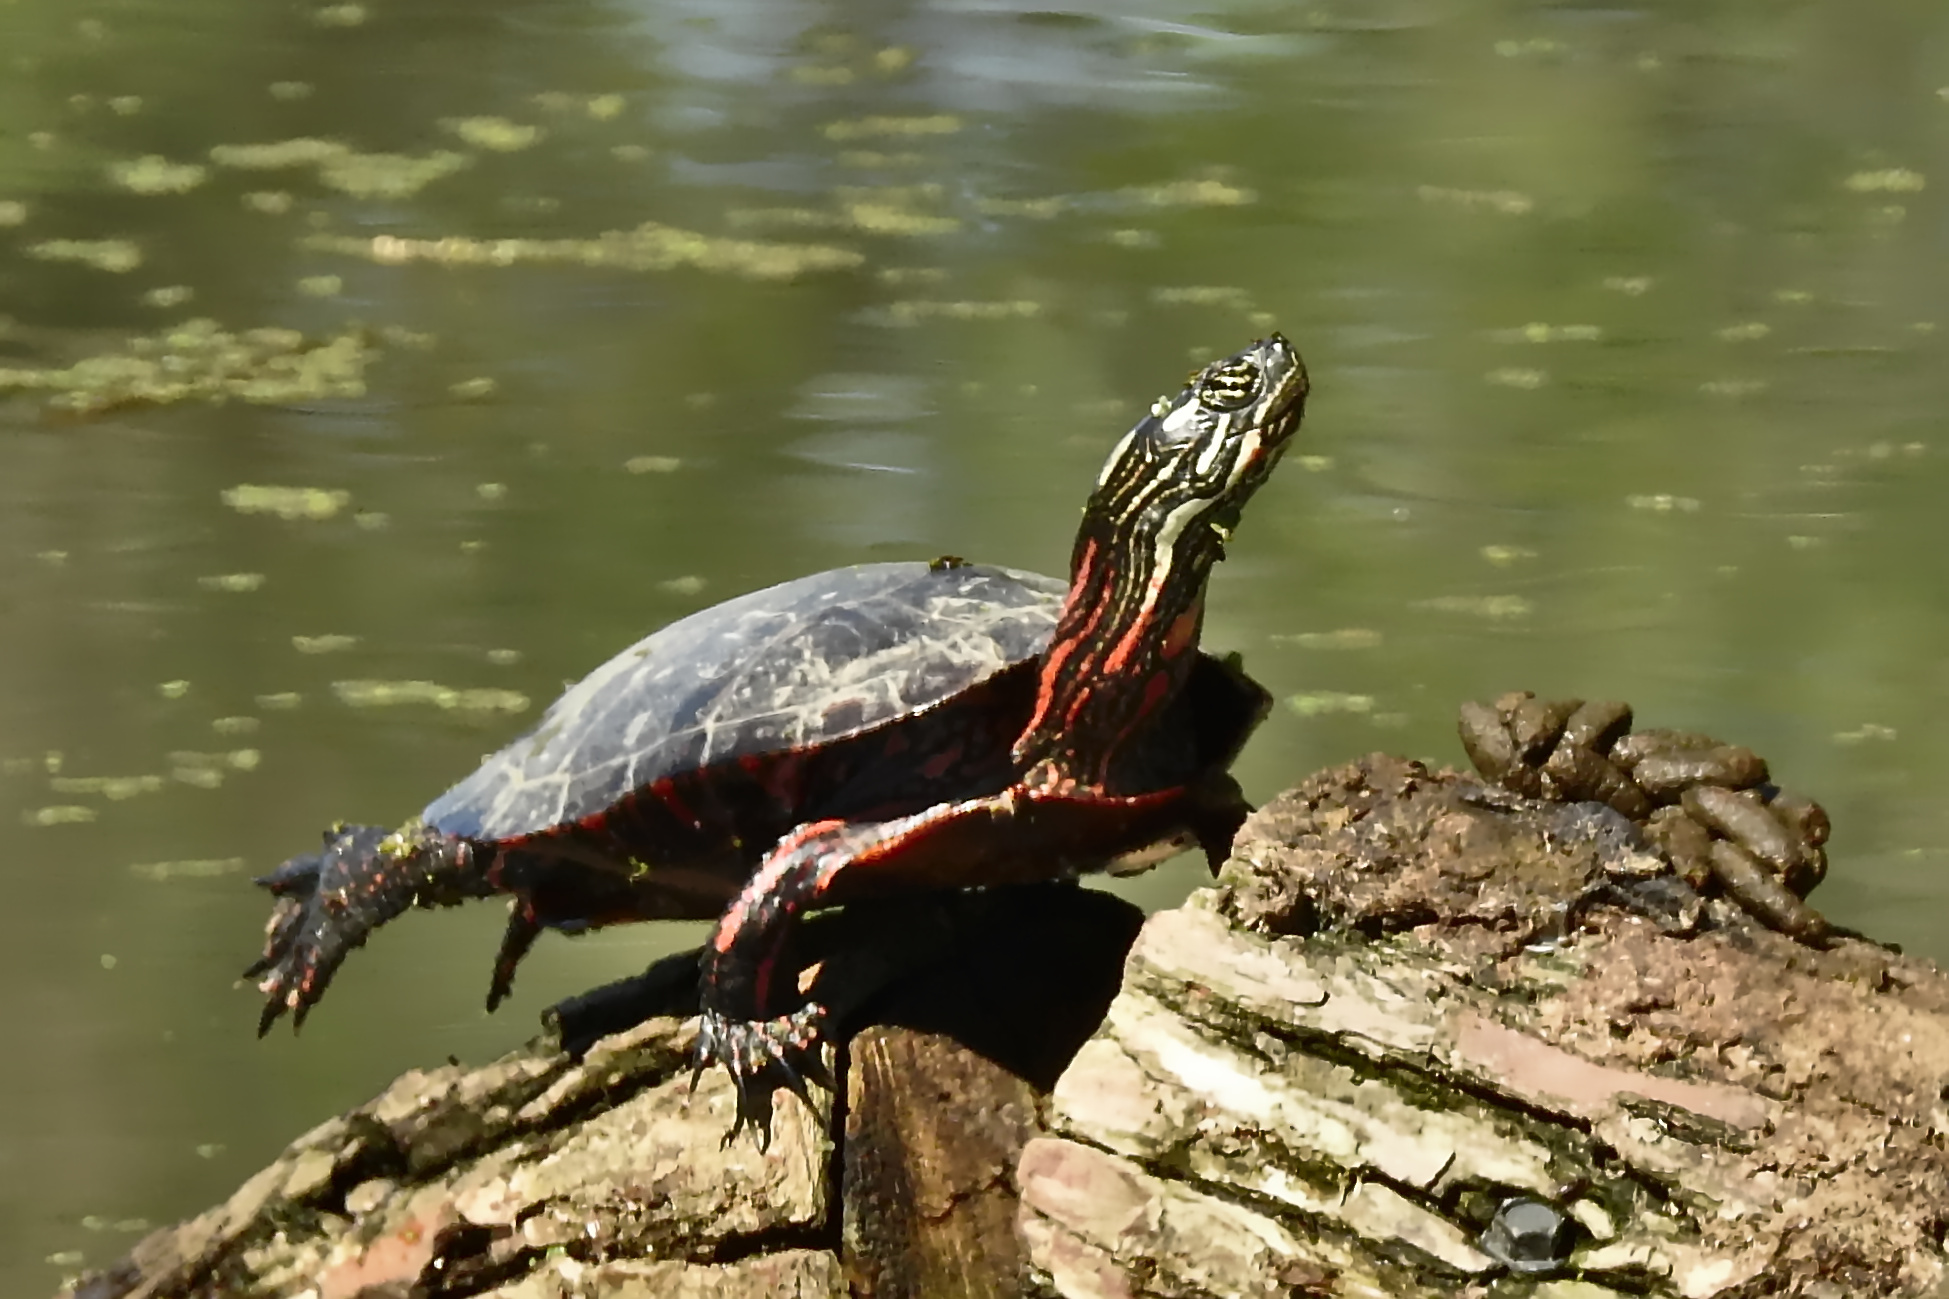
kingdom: Animalia
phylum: Chordata
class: Testudines
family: Emydidae
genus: Chrysemys
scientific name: Chrysemys picta
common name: Painted turtle
